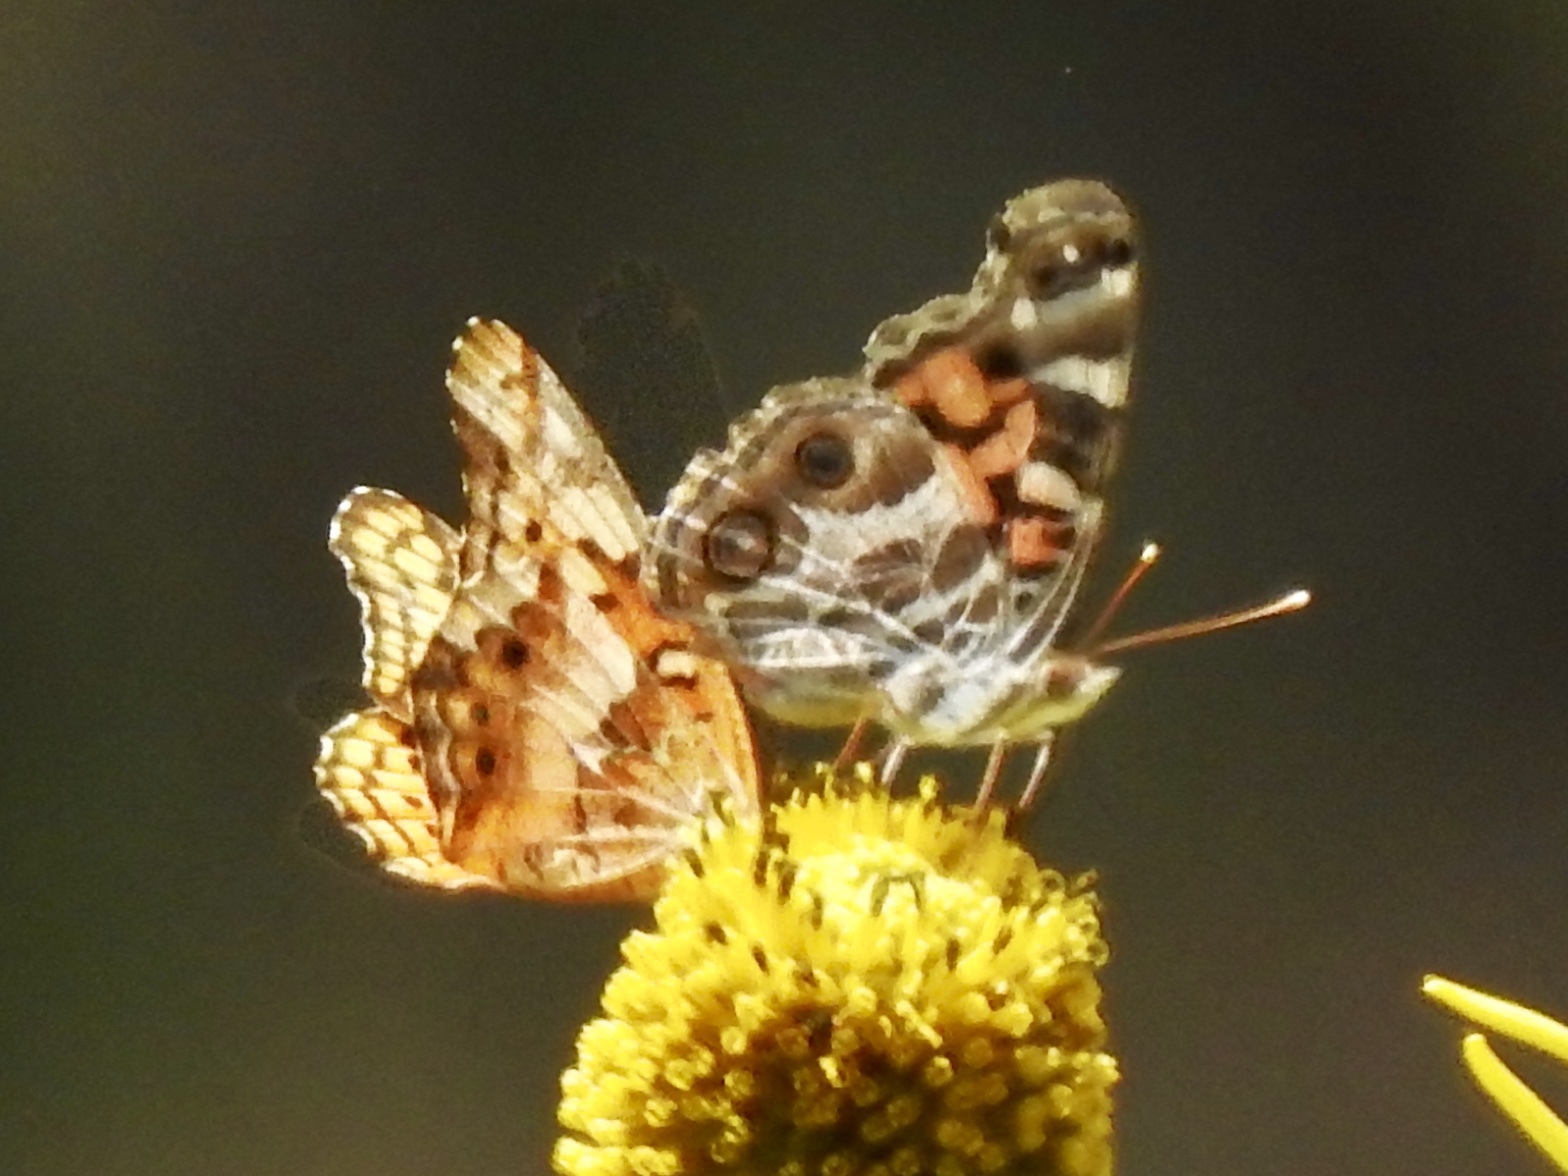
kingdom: Animalia
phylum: Arthropoda
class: Insecta
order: Lepidoptera
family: Nymphalidae
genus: Vanessa
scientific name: Vanessa virginiensis
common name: American lady
